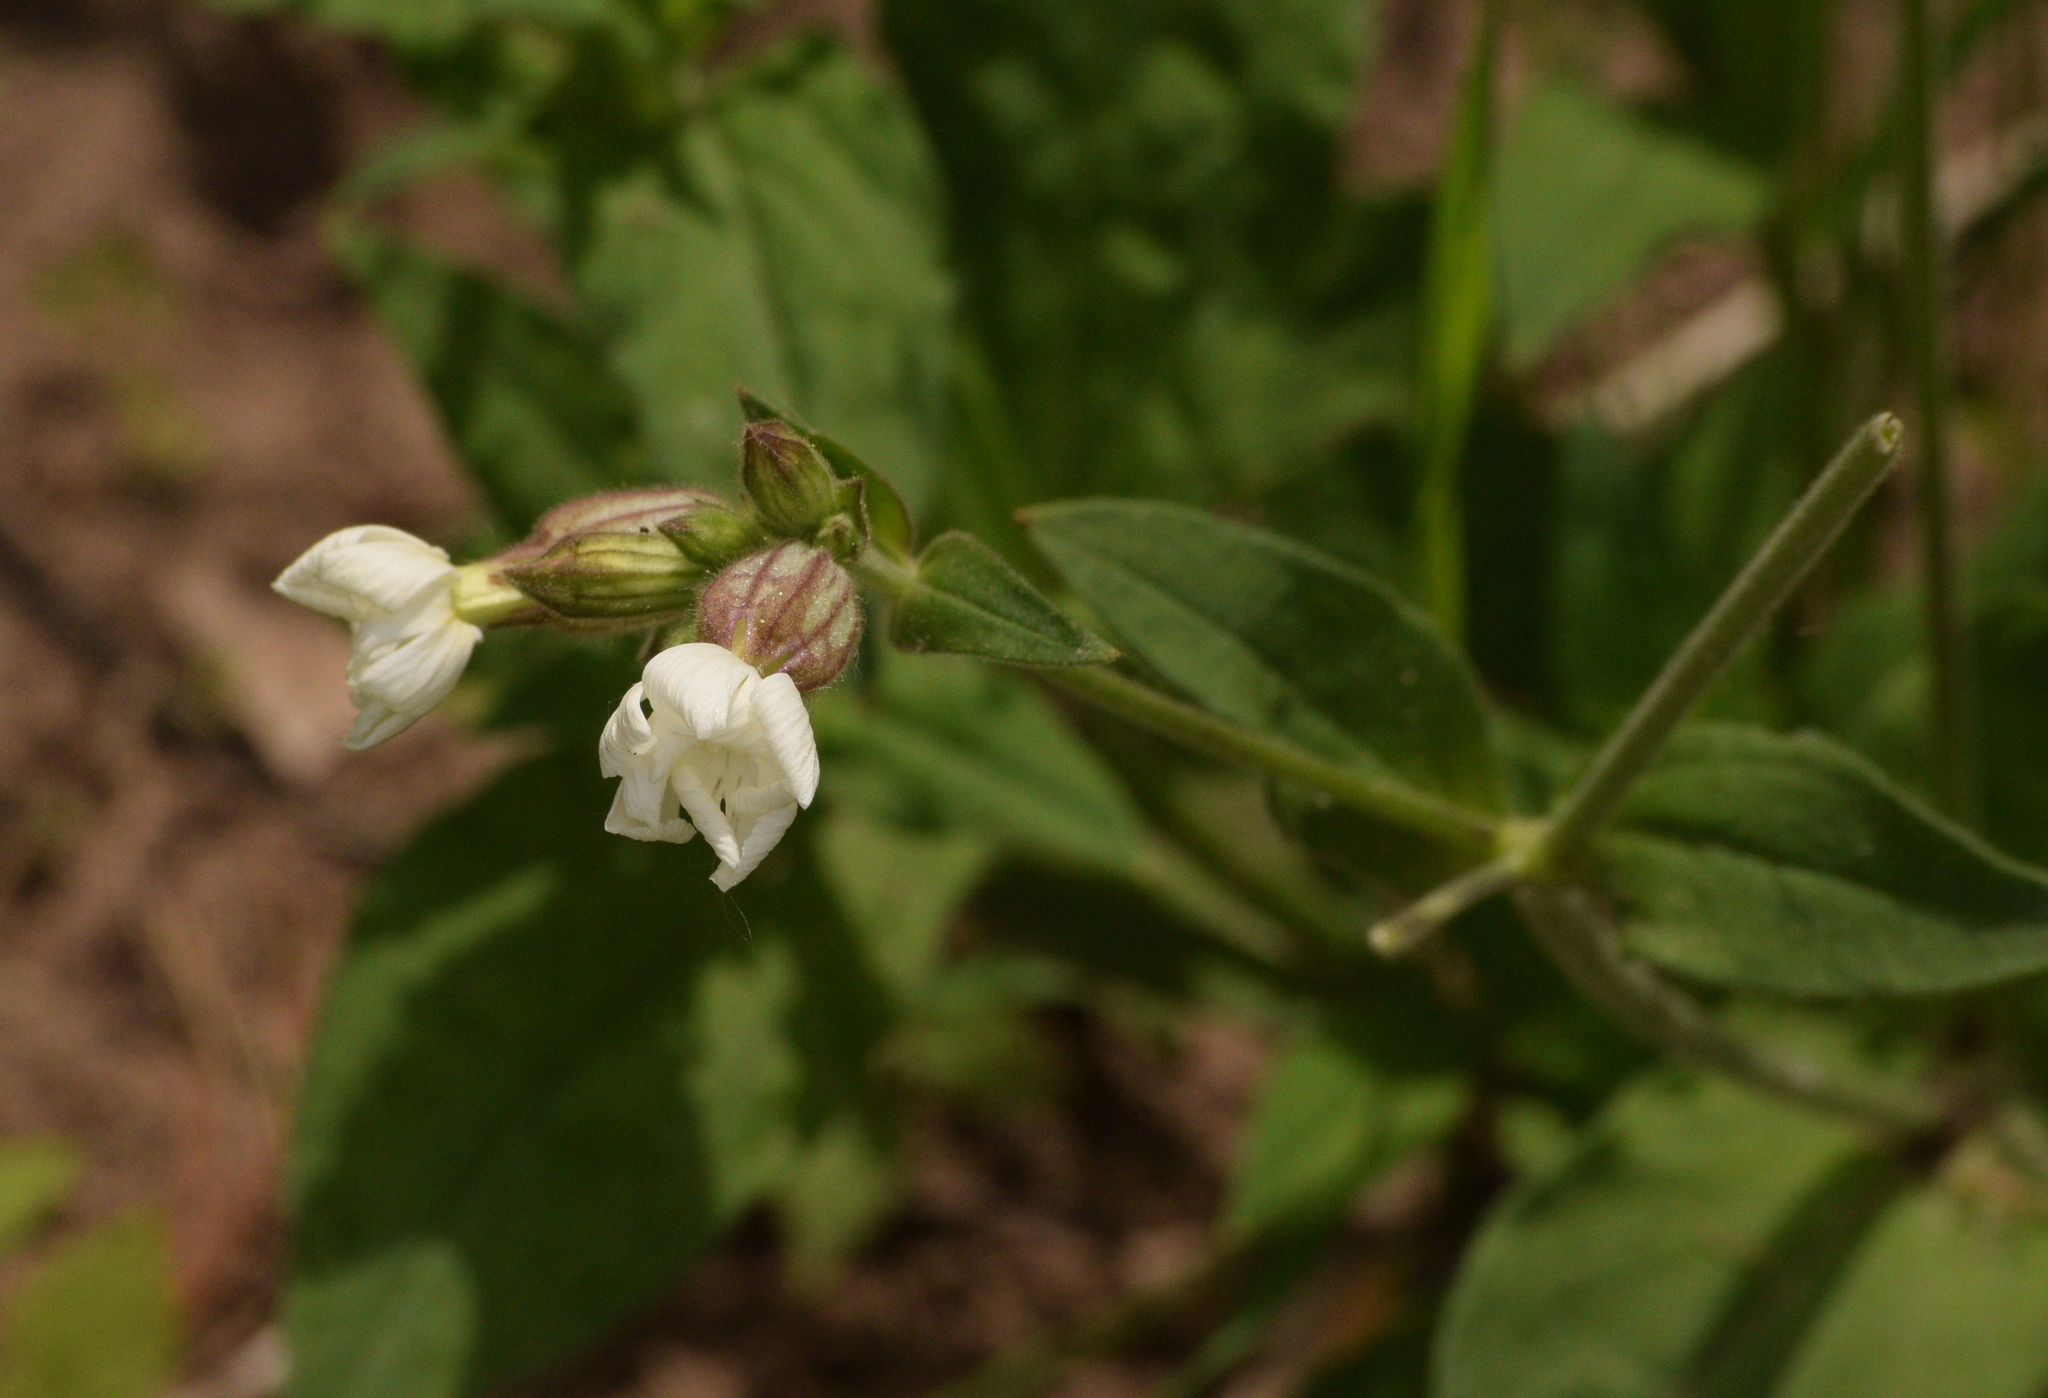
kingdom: Plantae
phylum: Tracheophyta
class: Magnoliopsida
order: Caryophyllales
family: Caryophyllaceae
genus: Silene
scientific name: Silene latifolia
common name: White campion
